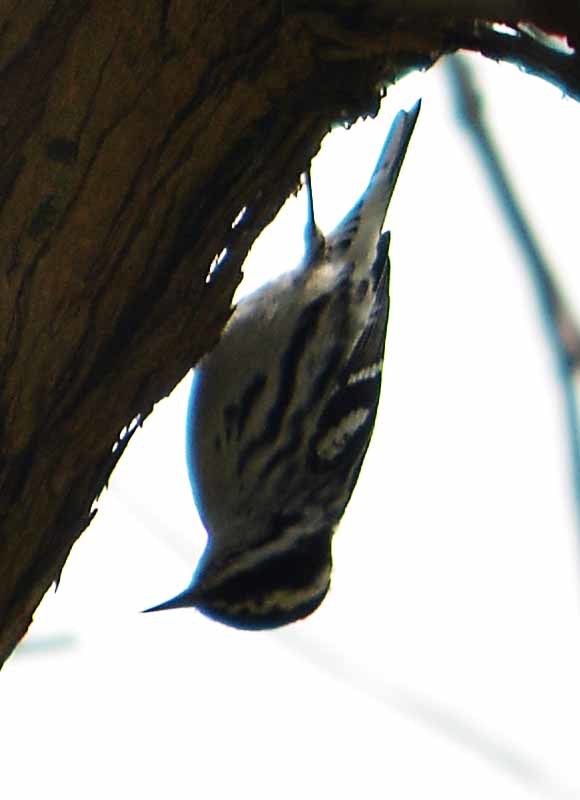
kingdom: Animalia
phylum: Chordata
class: Aves
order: Passeriformes
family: Parulidae
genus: Mniotilta
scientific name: Mniotilta varia
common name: Black-and-white warbler
